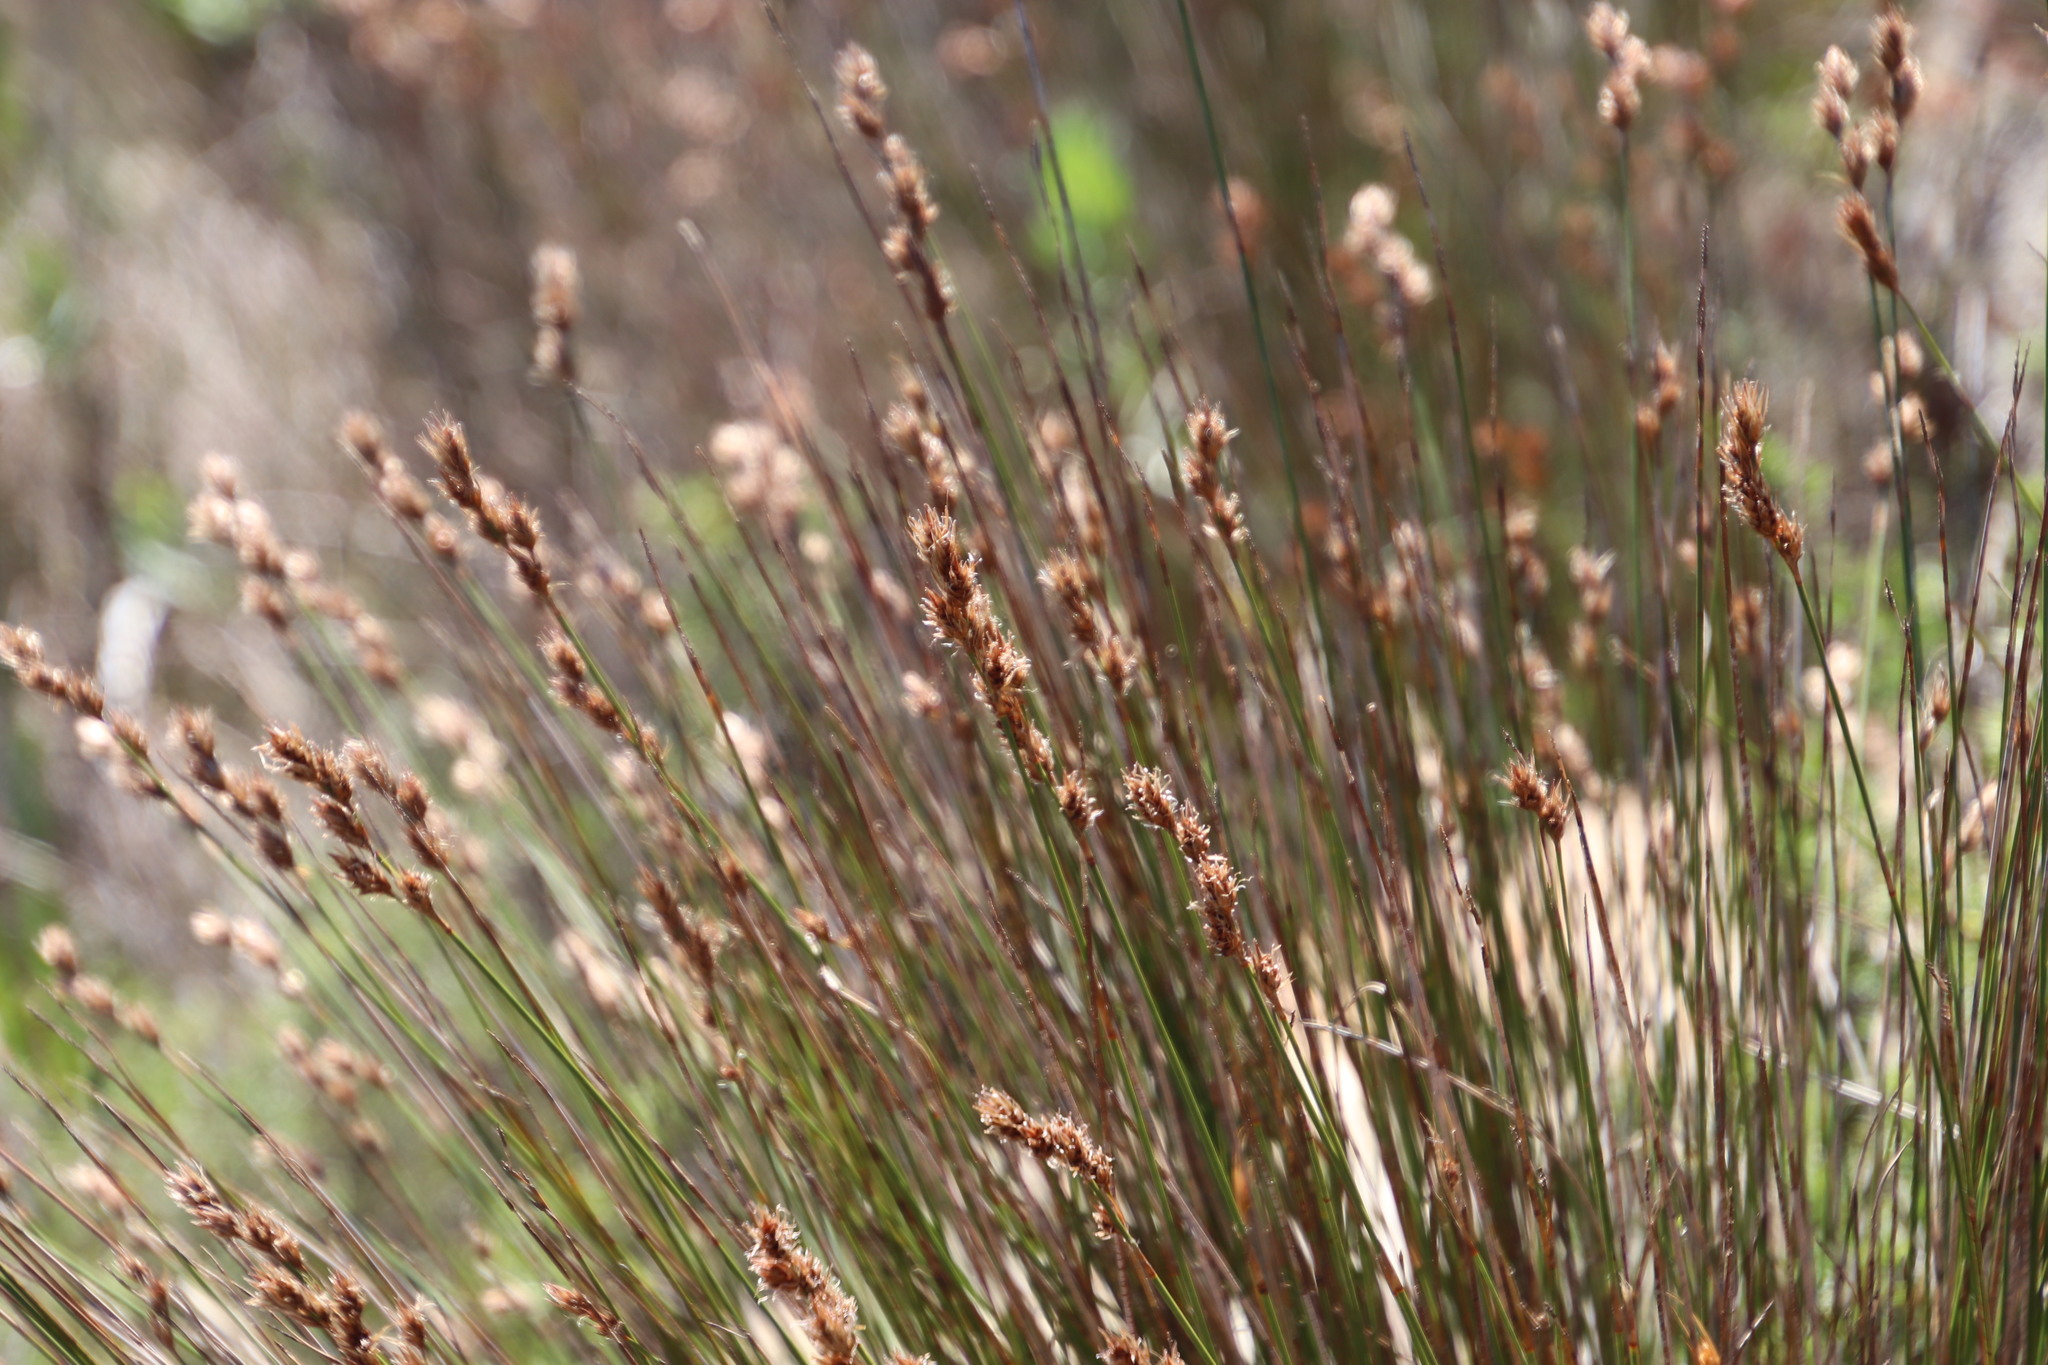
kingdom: Plantae
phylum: Tracheophyta
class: Liliopsida
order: Poales
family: Restionaceae
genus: Thamnochortus
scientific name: Thamnochortus lucens
